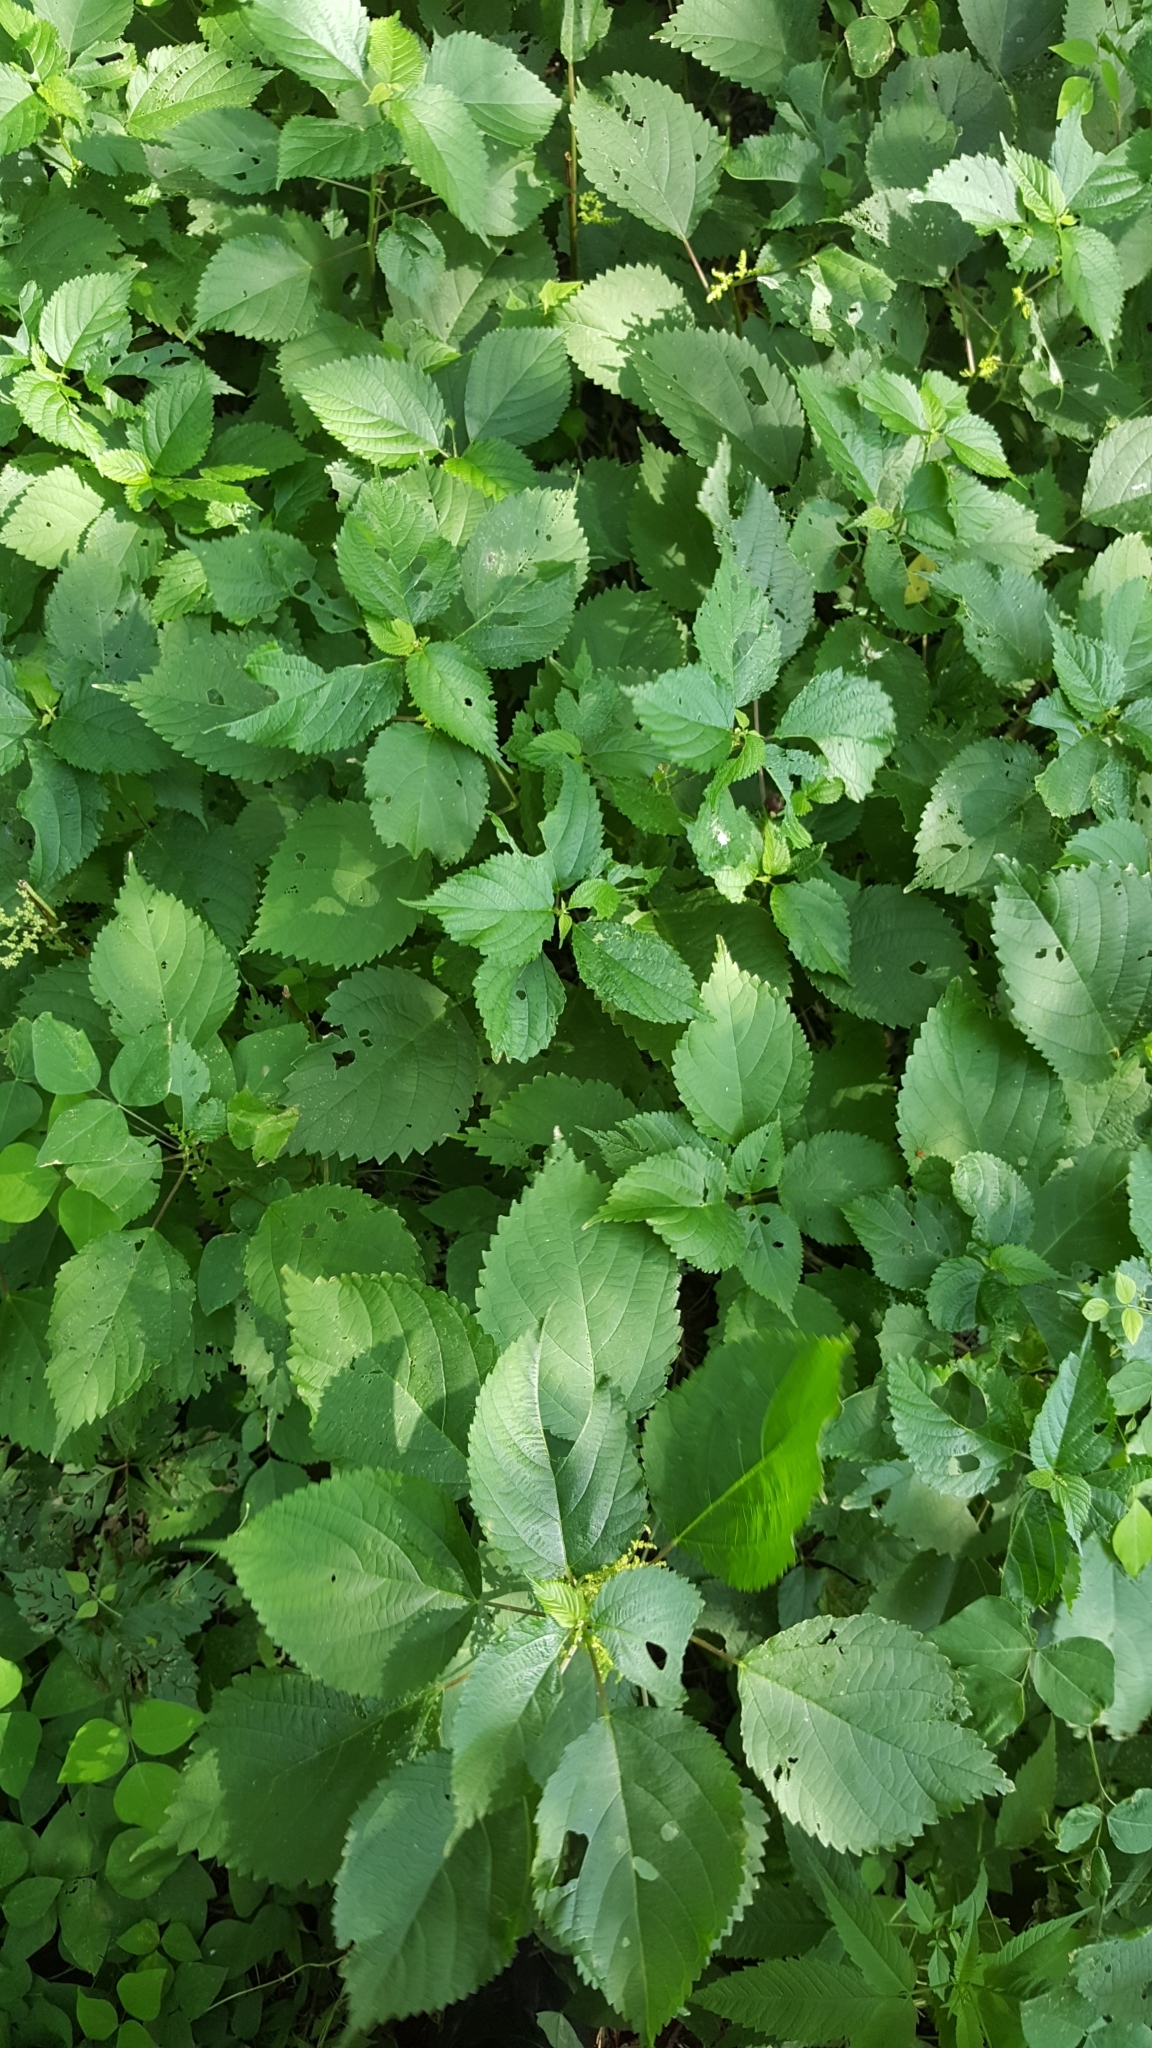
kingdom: Plantae
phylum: Tracheophyta
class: Magnoliopsida
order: Rosales
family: Urticaceae
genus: Laportea
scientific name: Laportea canadensis
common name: Canada nettle
